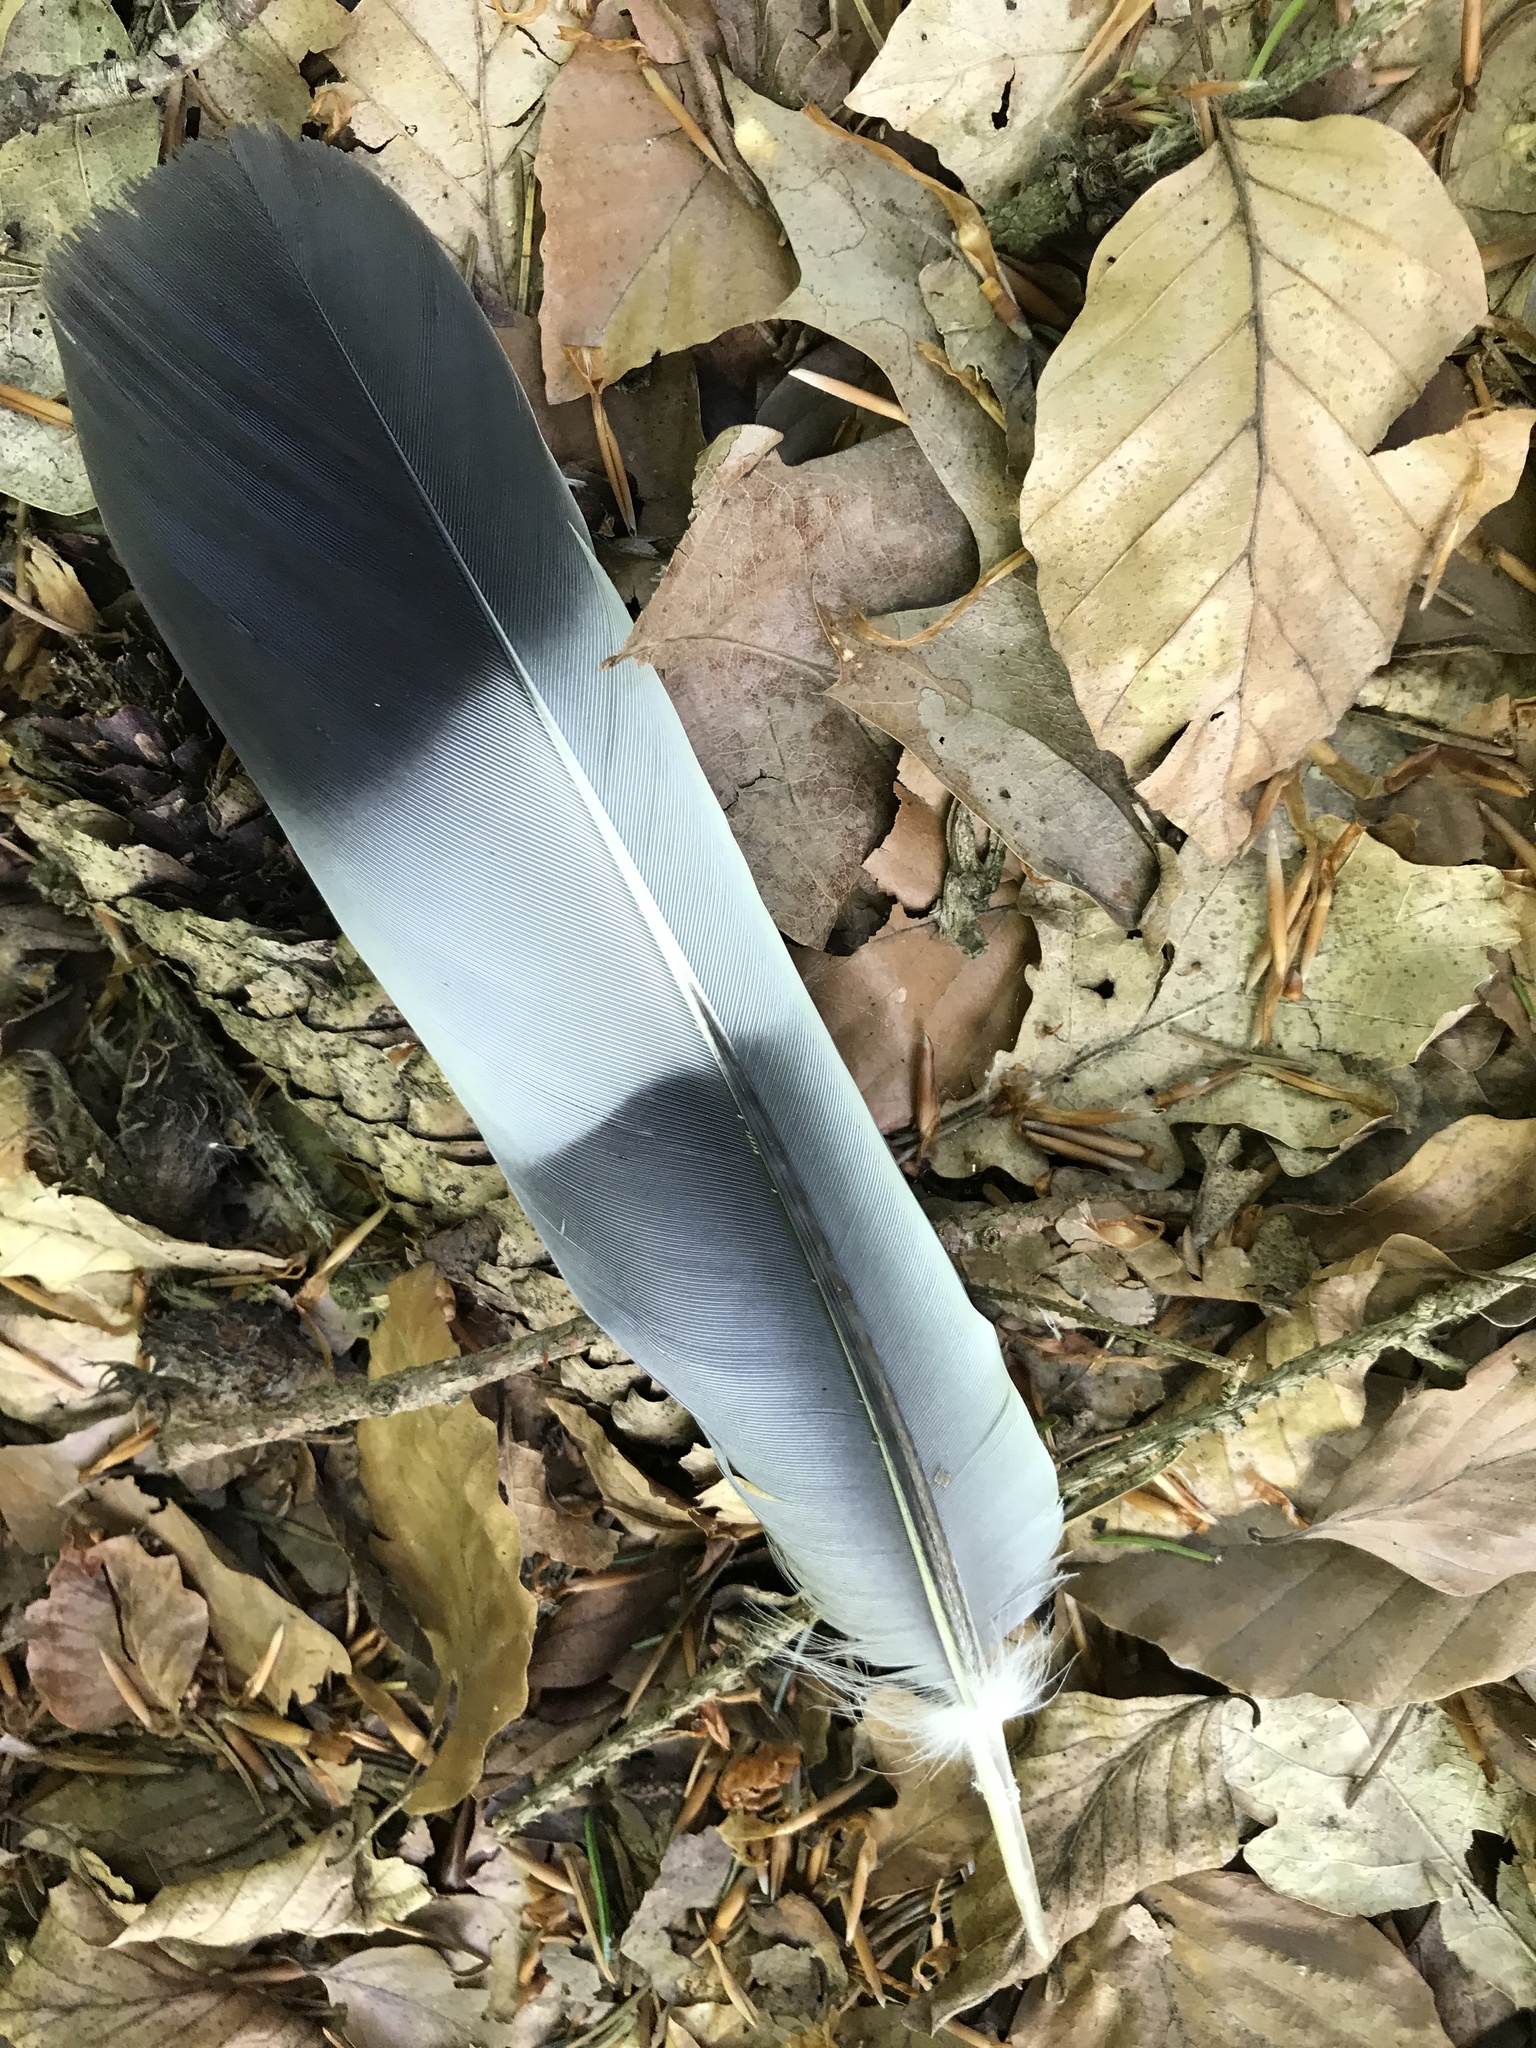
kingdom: Animalia
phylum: Chordata
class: Aves
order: Columbiformes
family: Columbidae
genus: Columba
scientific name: Columba palumbus
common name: Common wood pigeon
